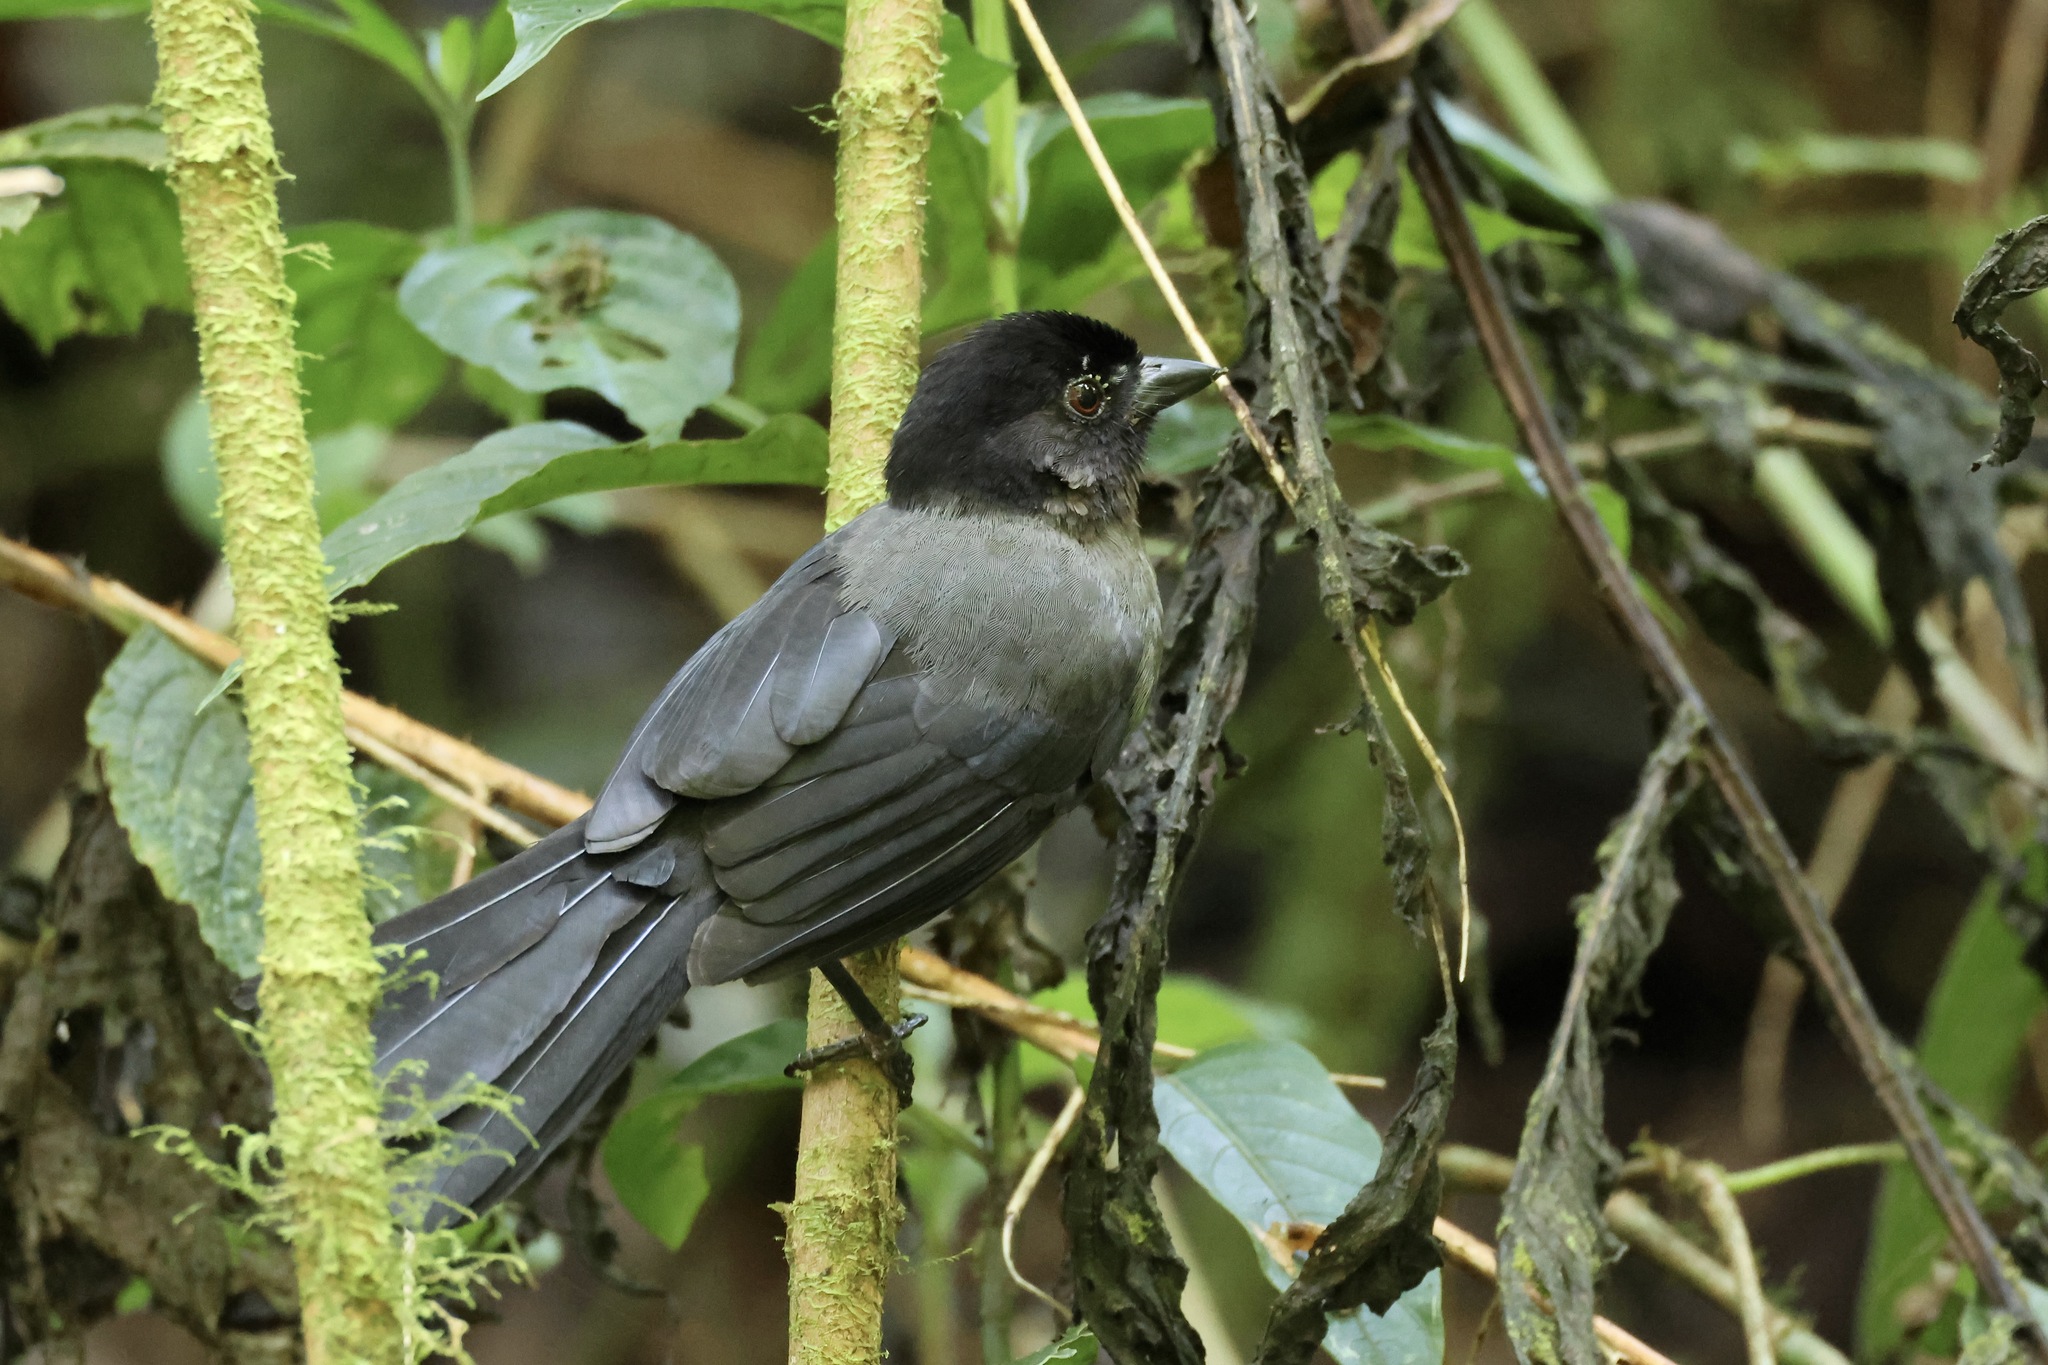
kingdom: Animalia
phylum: Chordata
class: Aves
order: Passeriformes
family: Passerellidae
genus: Atlapetes
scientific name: Atlapetes tibialis
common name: Yellow-thighed brushfinch
